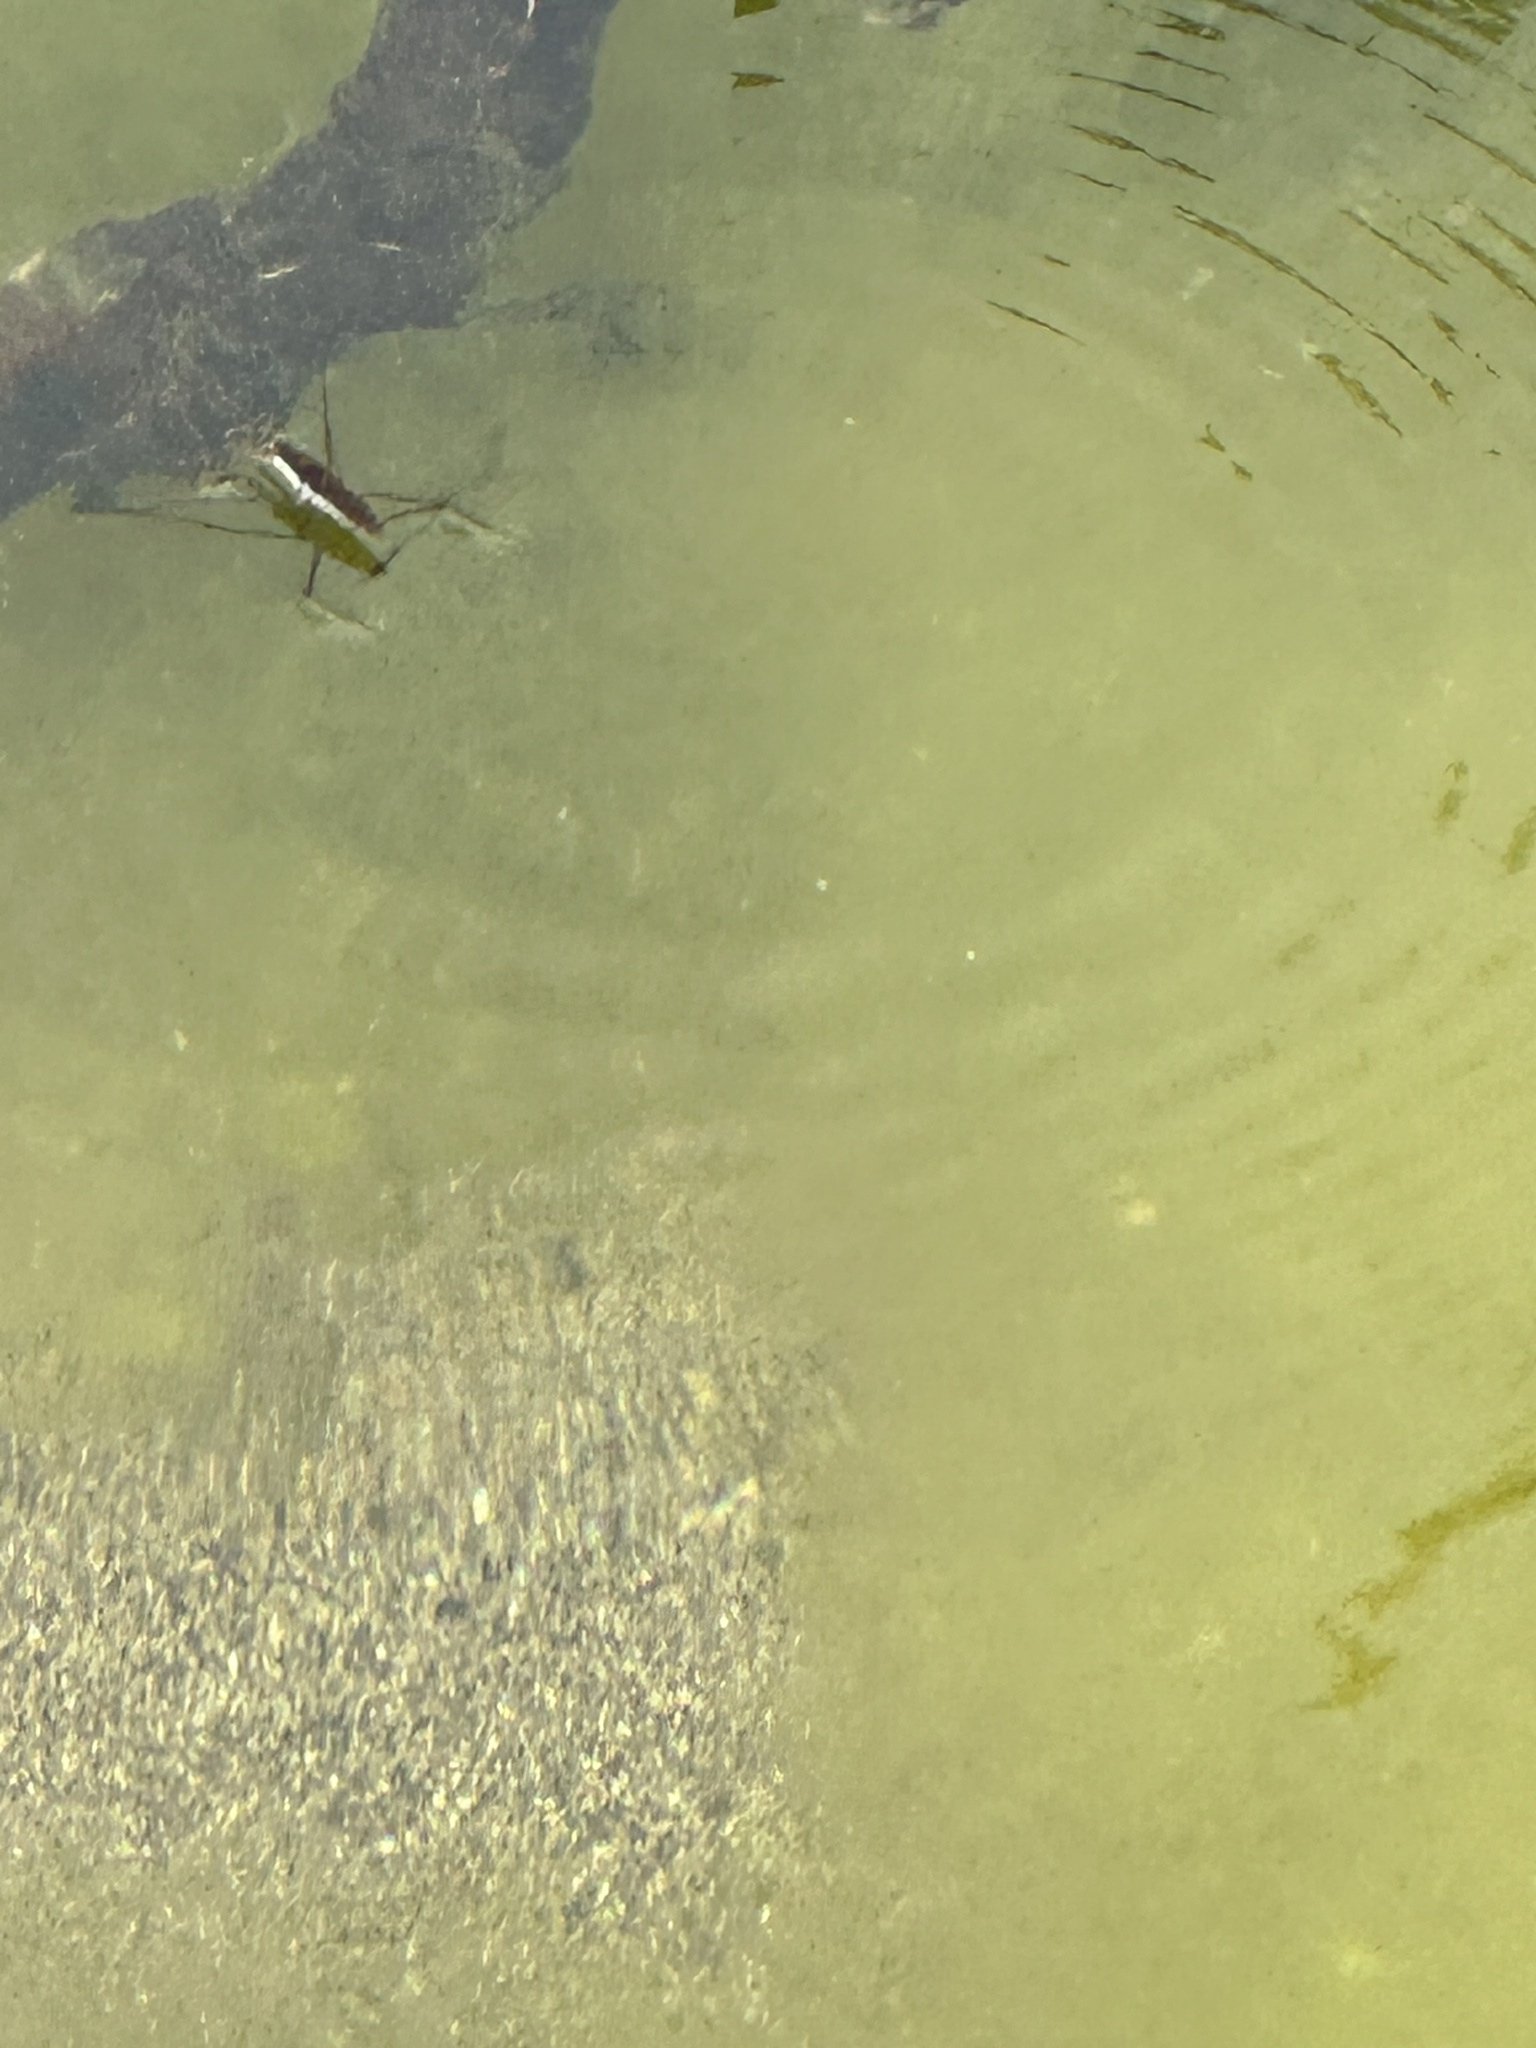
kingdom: Animalia
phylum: Arthropoda
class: Insecta
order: Hemiptera
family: Gerridae
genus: Aquarius
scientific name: Aquarius remigis
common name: Common water strider
